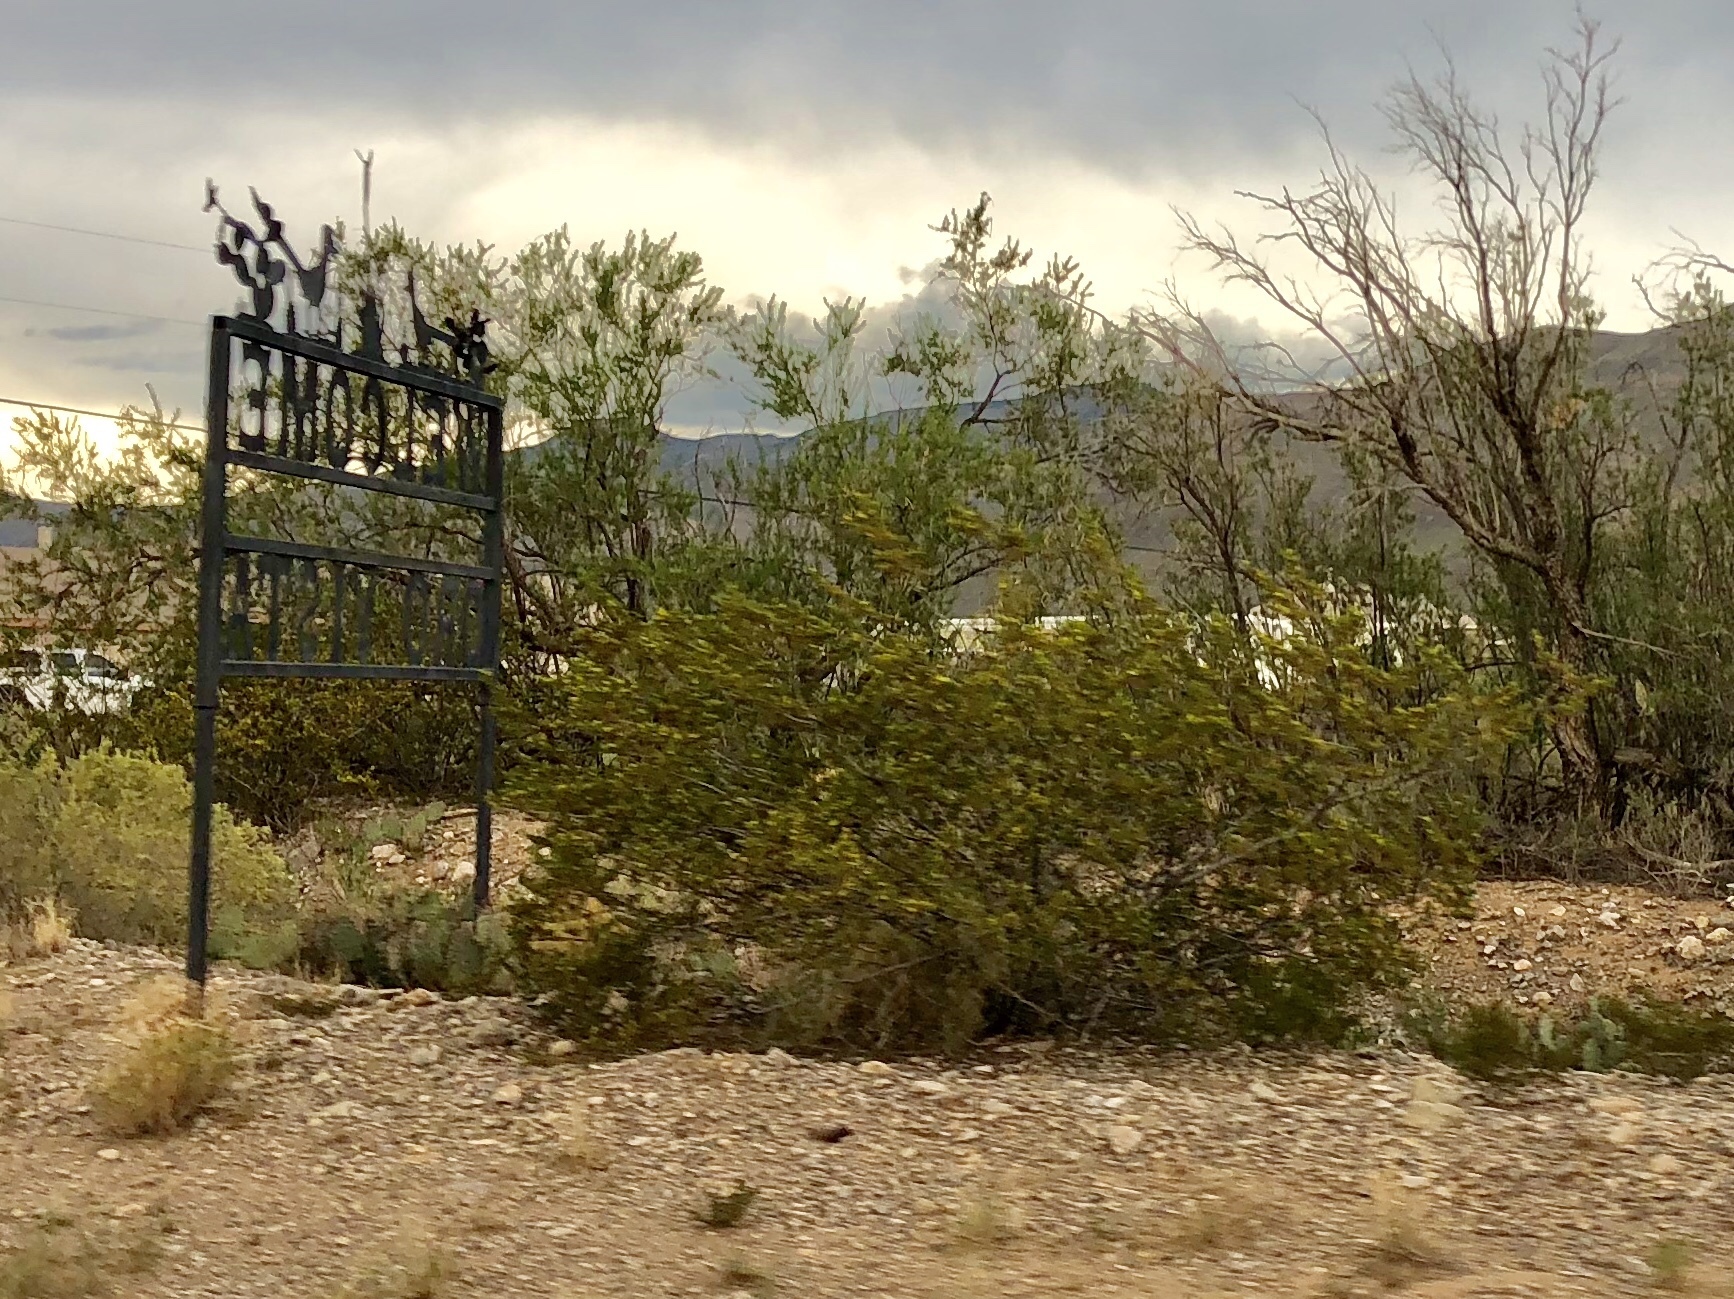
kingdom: Plantae
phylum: Tracheophyta
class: Magnoliopsida
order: Zygophyllales
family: Zygophyllaceae
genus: Larrea
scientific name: Larrea tridentata
